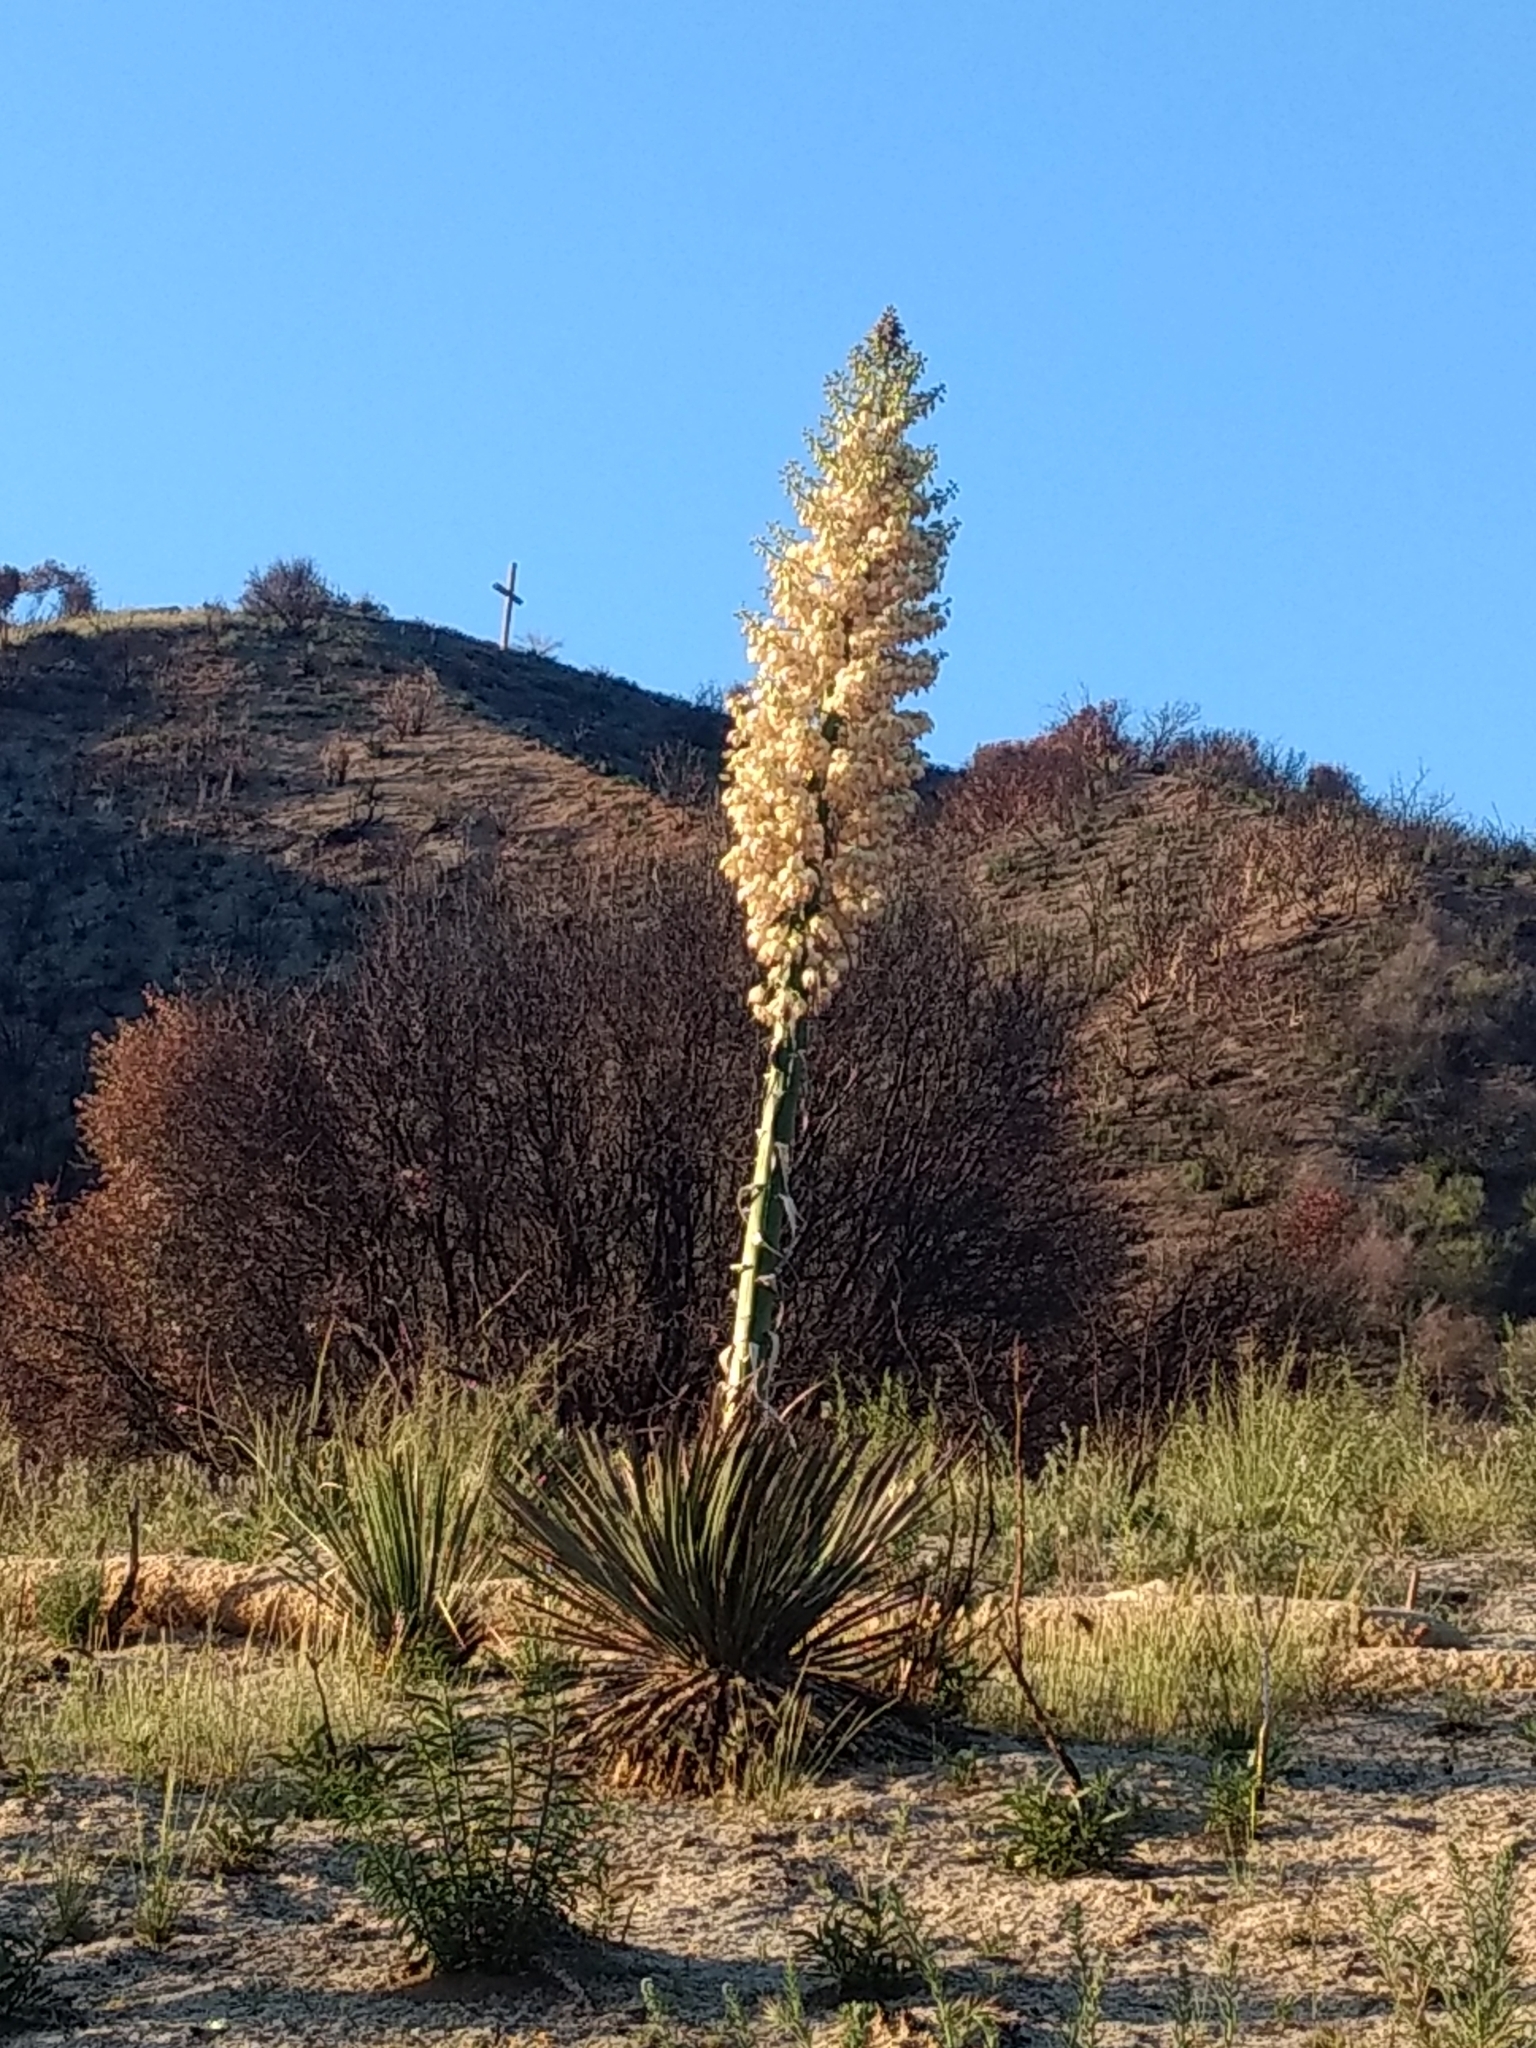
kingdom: Plantae
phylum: Tracheophyta
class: Liliopsida
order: Asparagales
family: Asparagaceae
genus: Hesperoyucca
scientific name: Hesperoyucca whipplei
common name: Our lord's-candle
